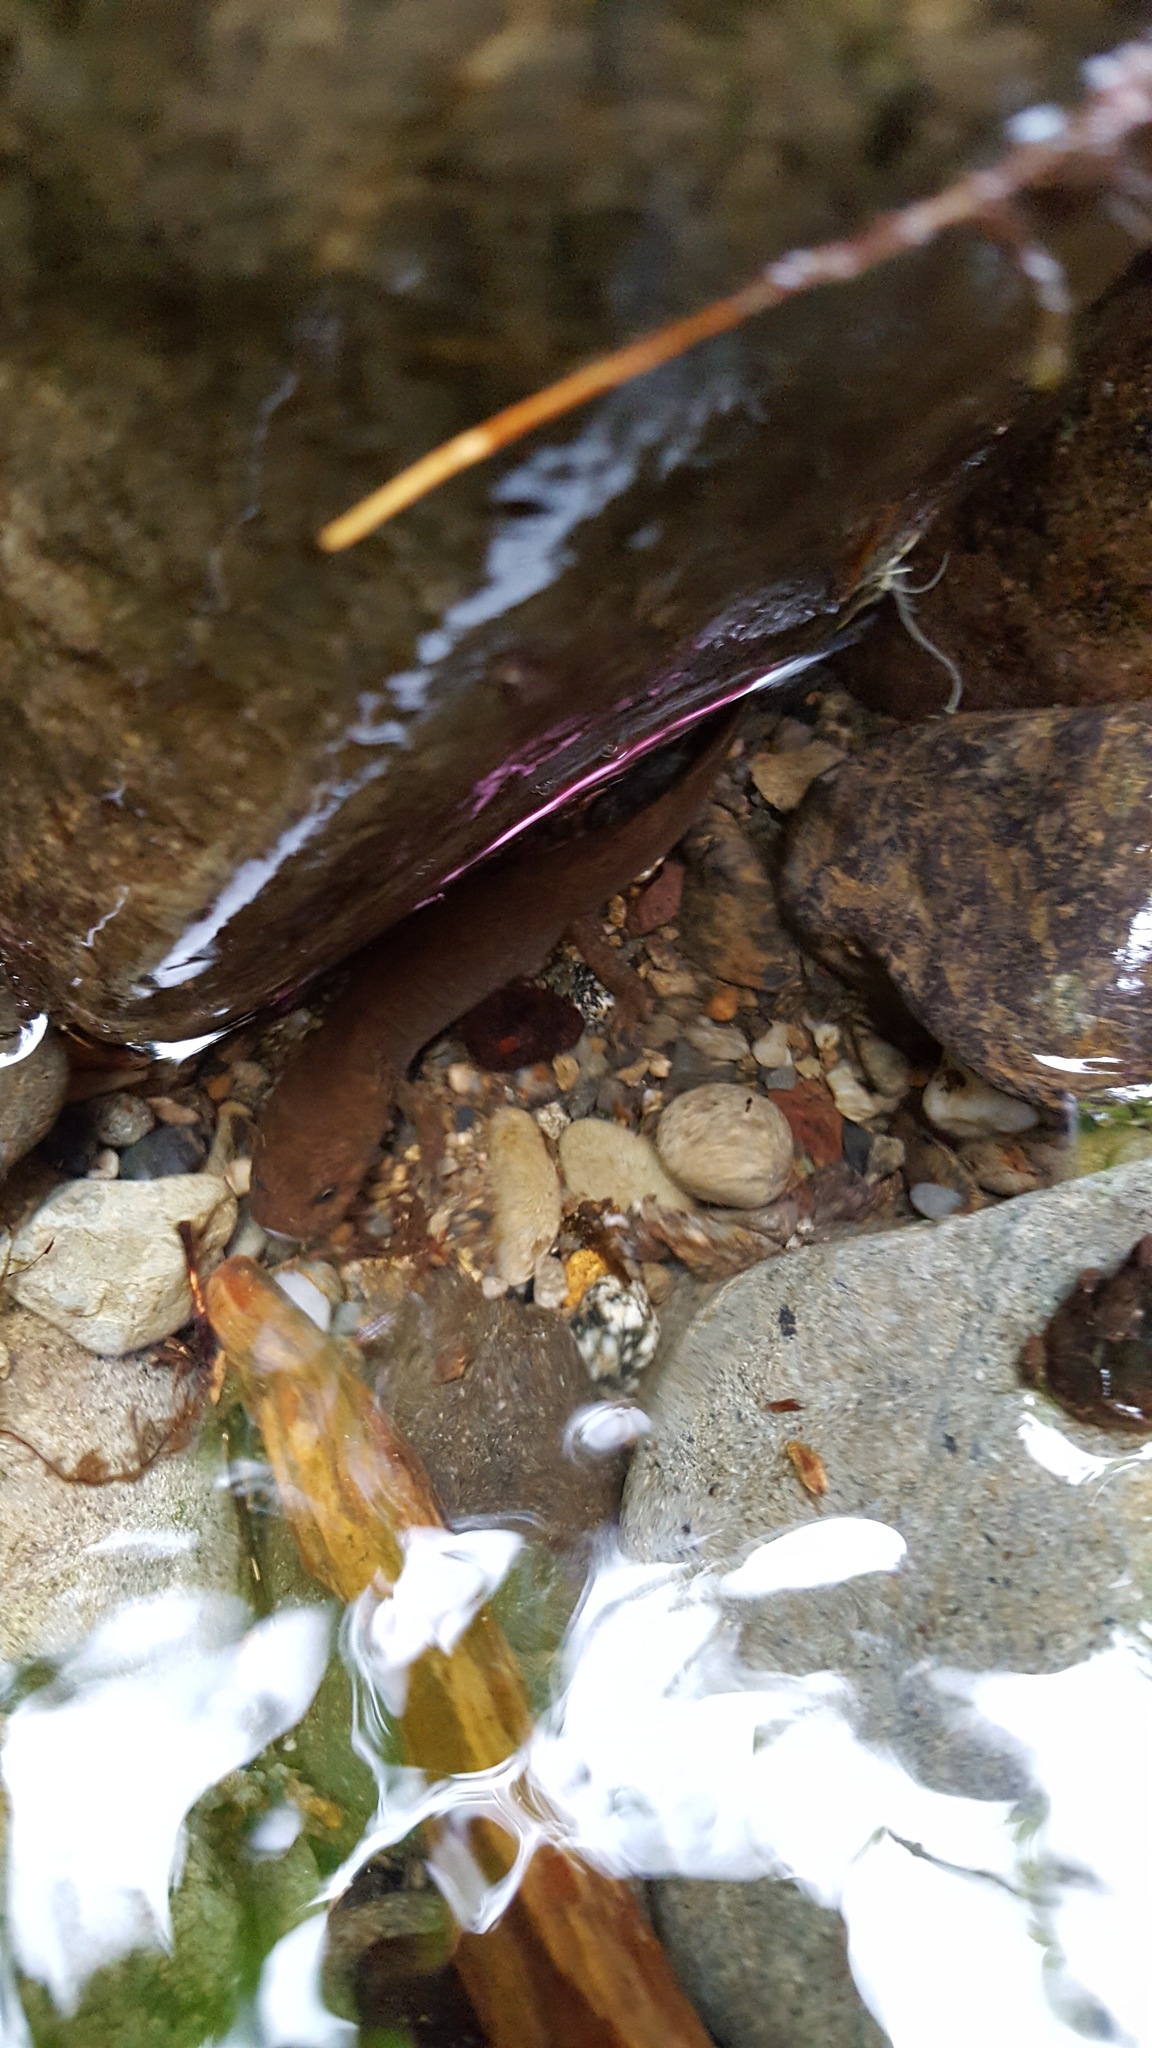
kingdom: Animalia
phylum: Chordata
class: Amphibia
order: Caudata
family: Ambystomatidae
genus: Dicamptodon
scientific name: Dicamptodon tenebrosus
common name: Coastal giant salamander
